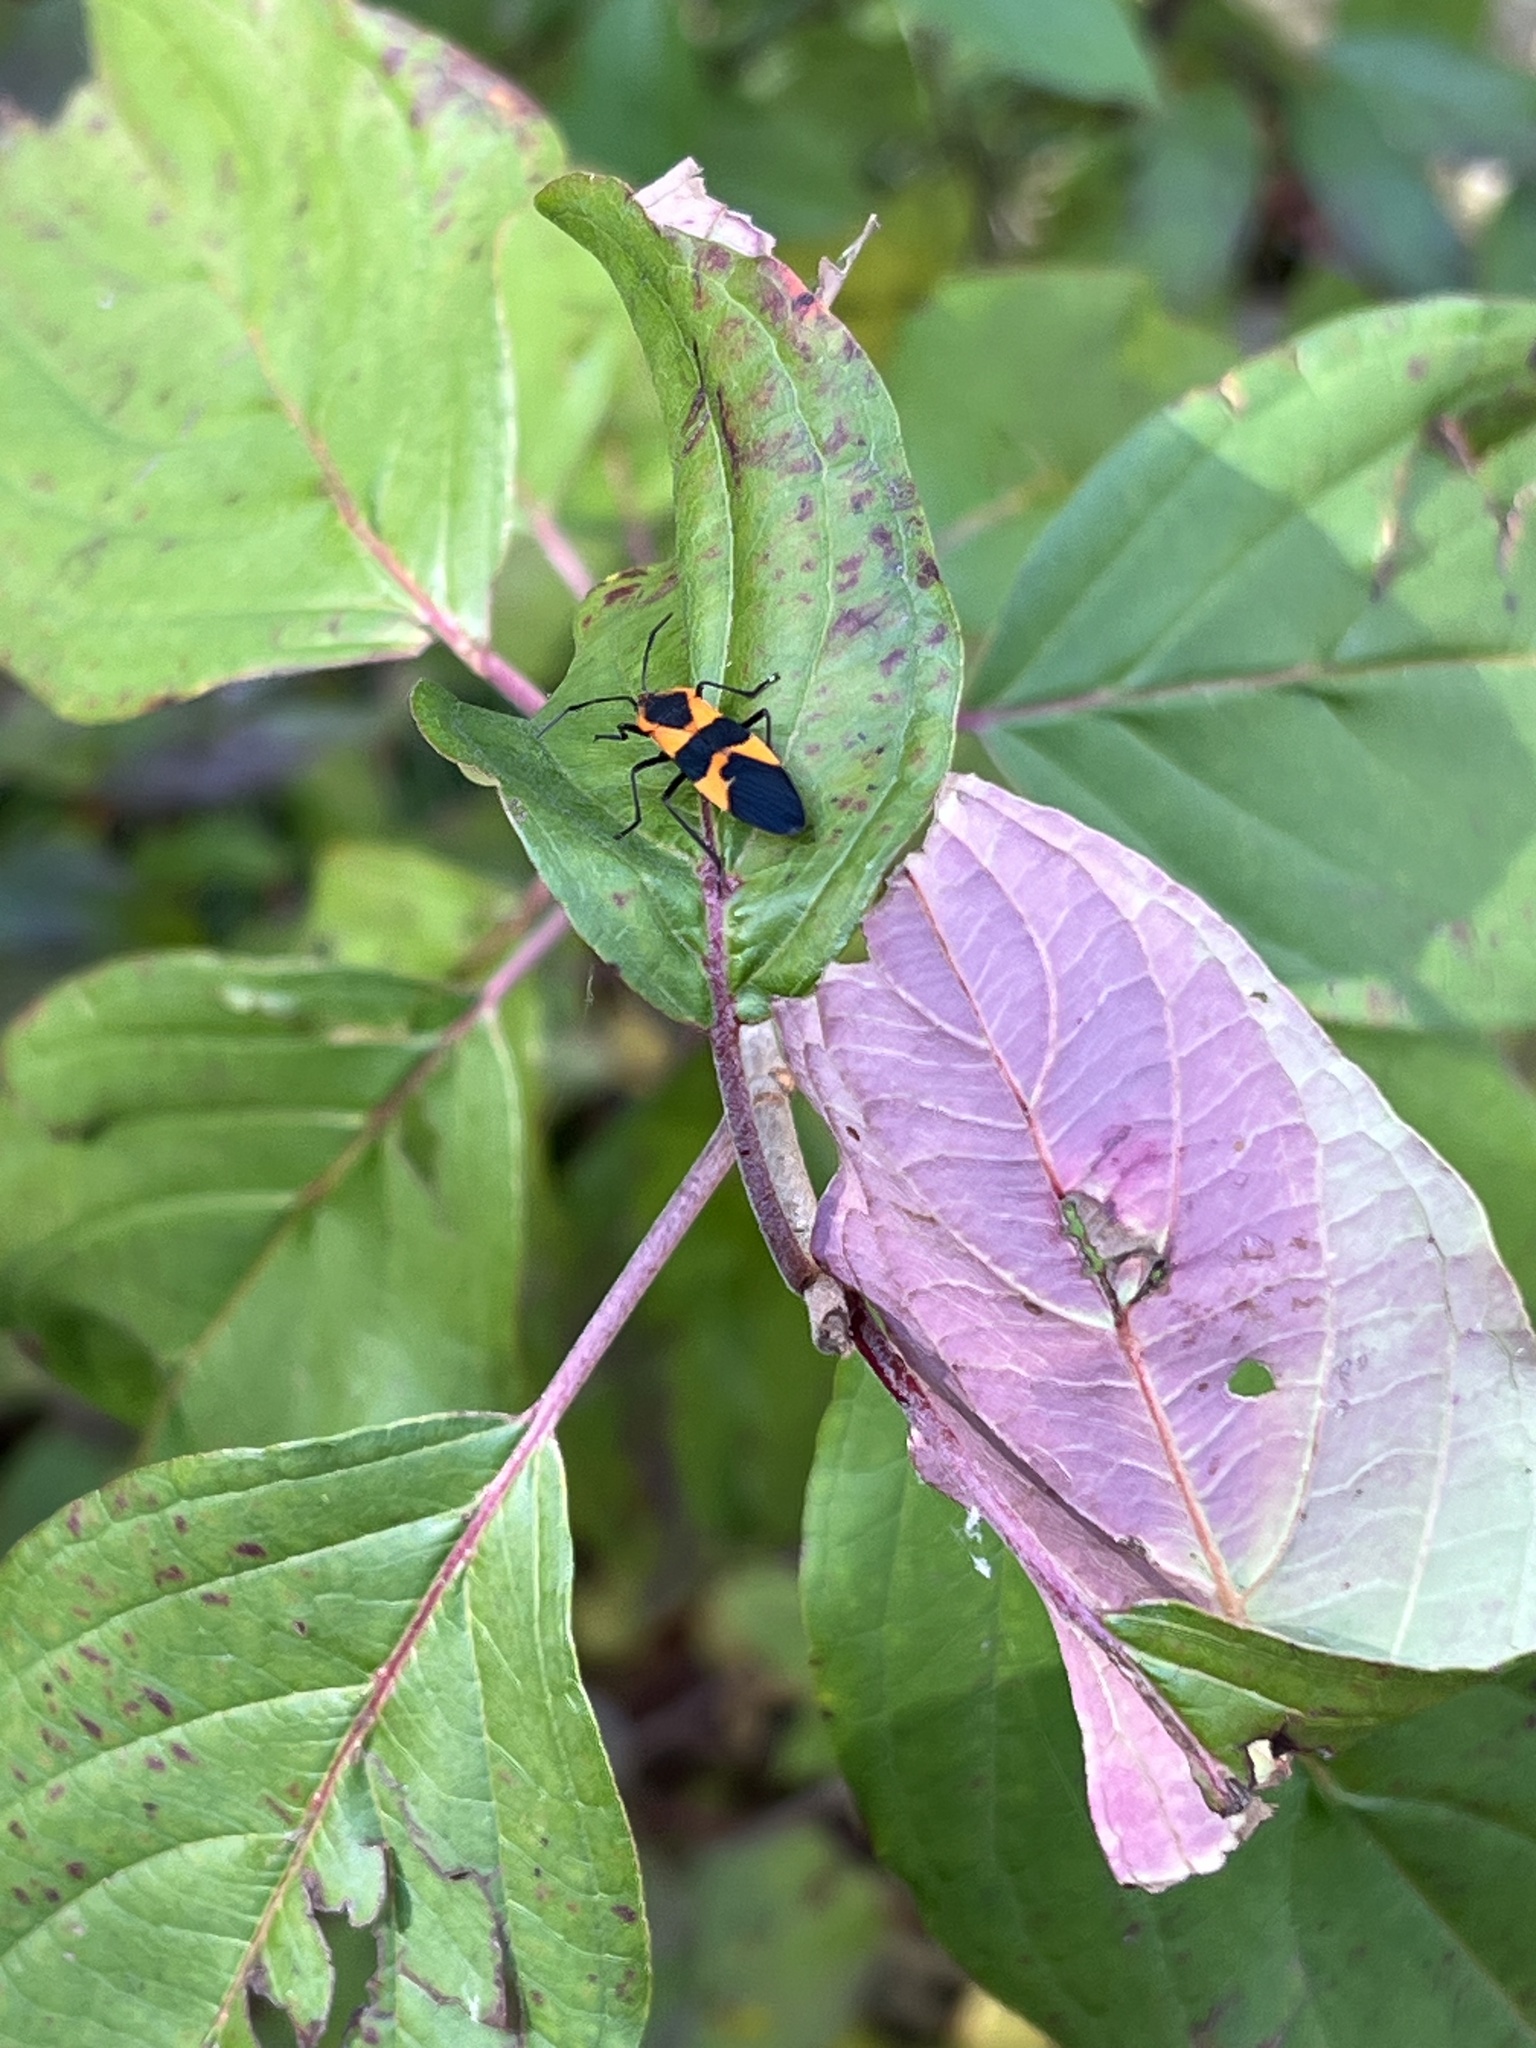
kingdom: Animalia
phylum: Arthropoda
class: Insecta
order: Hemiptera
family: Lygaeidae
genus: Oncopeltus
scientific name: Oncopeltus fasciatus
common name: Large milkweed bug
